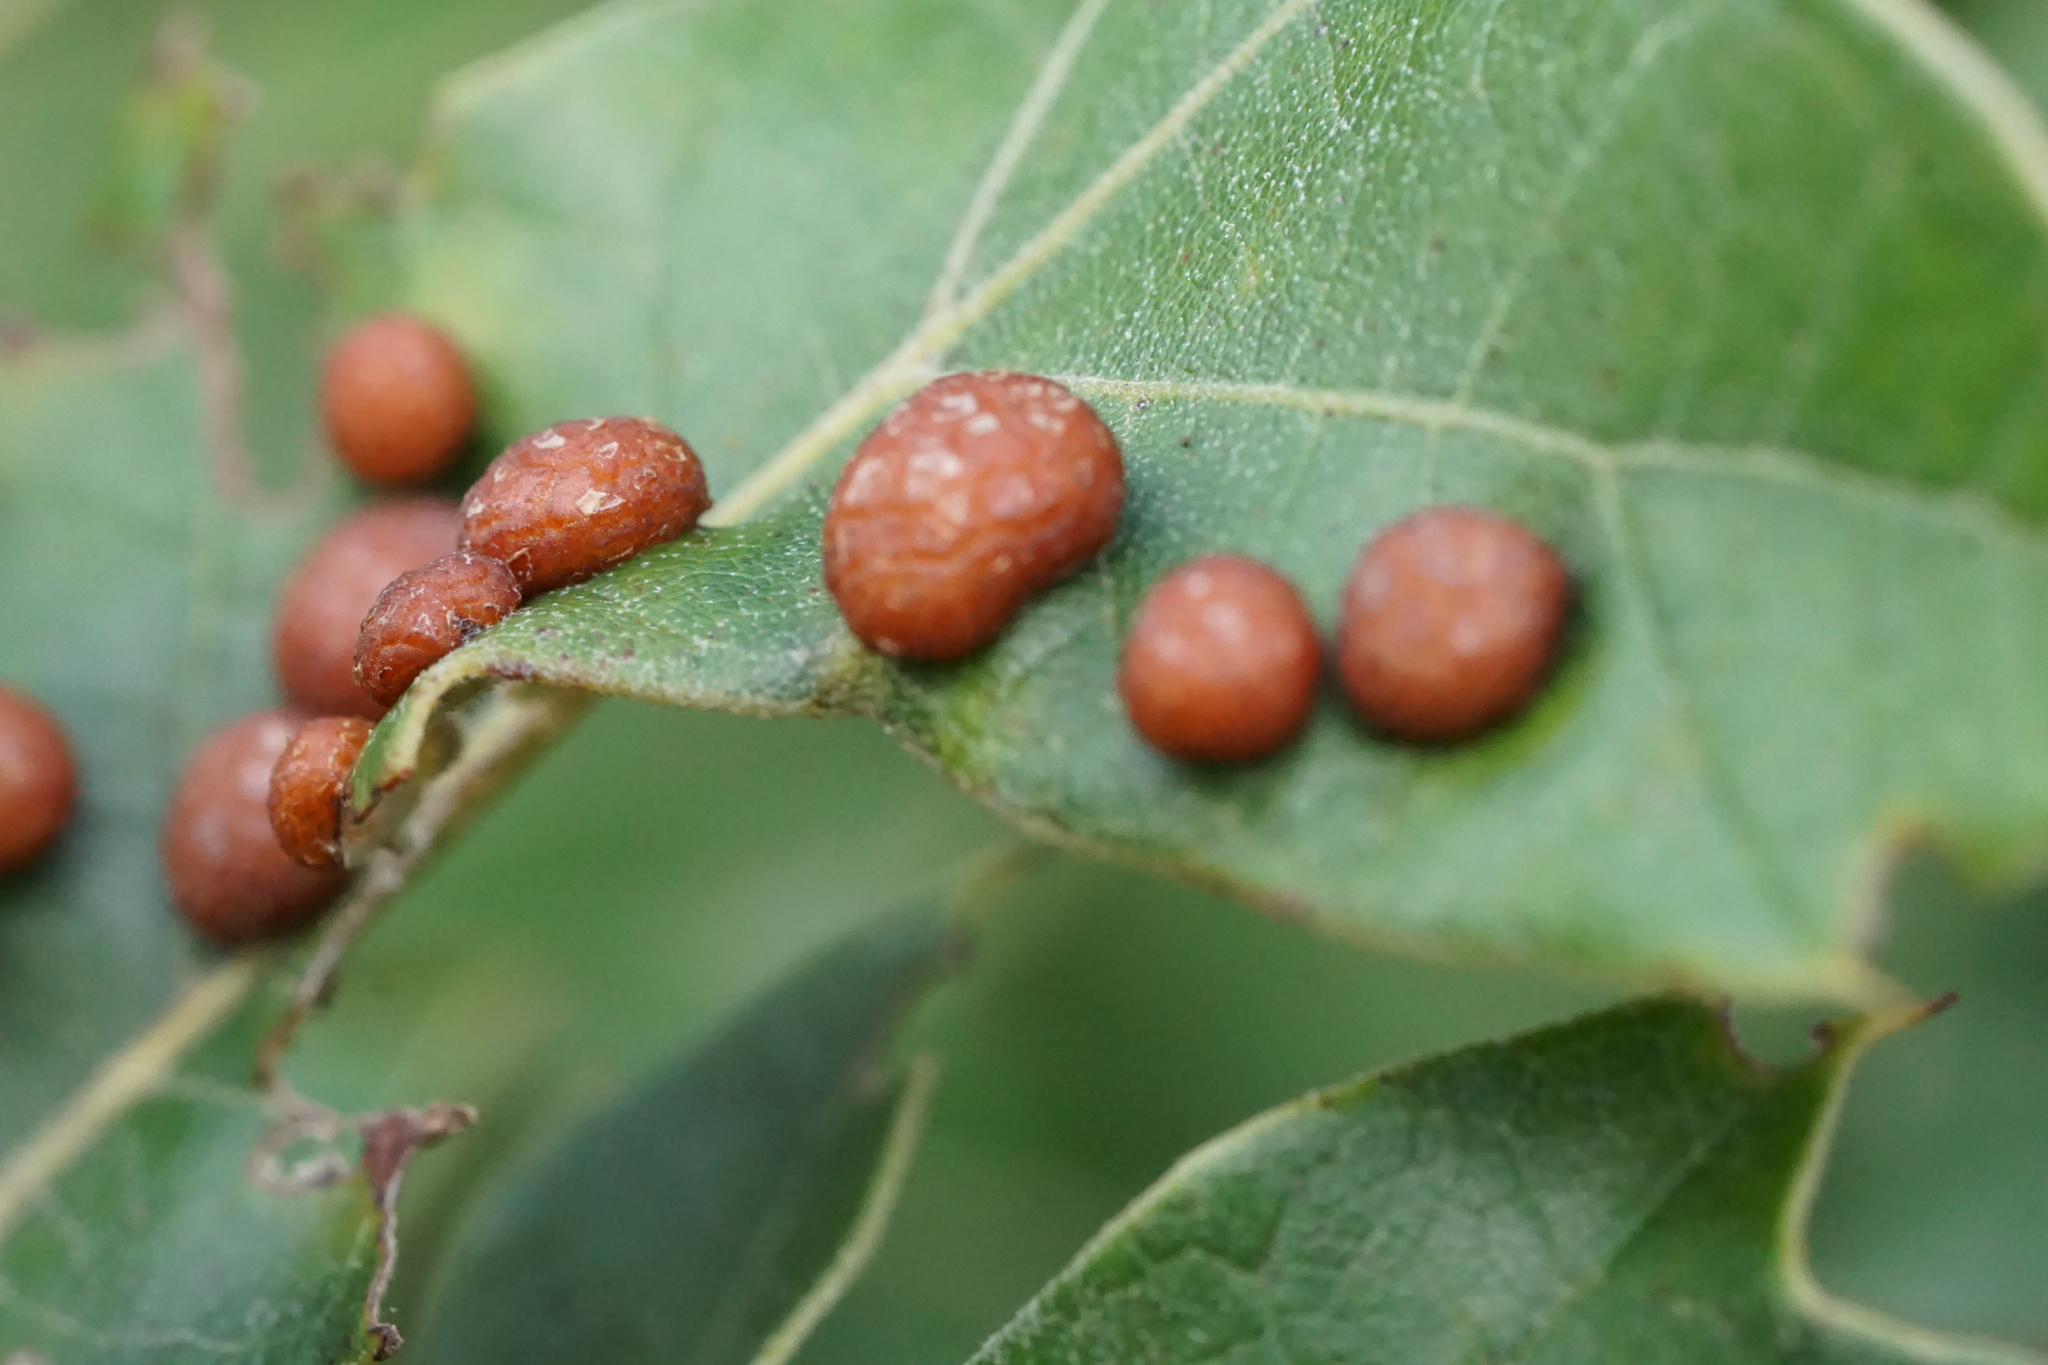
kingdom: Animalia
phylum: Arthropoda
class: Insecta
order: Diptera
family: Cecidomyiidae
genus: Polystepha
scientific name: Polystepha pilulae
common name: Oak leaf gall midge
